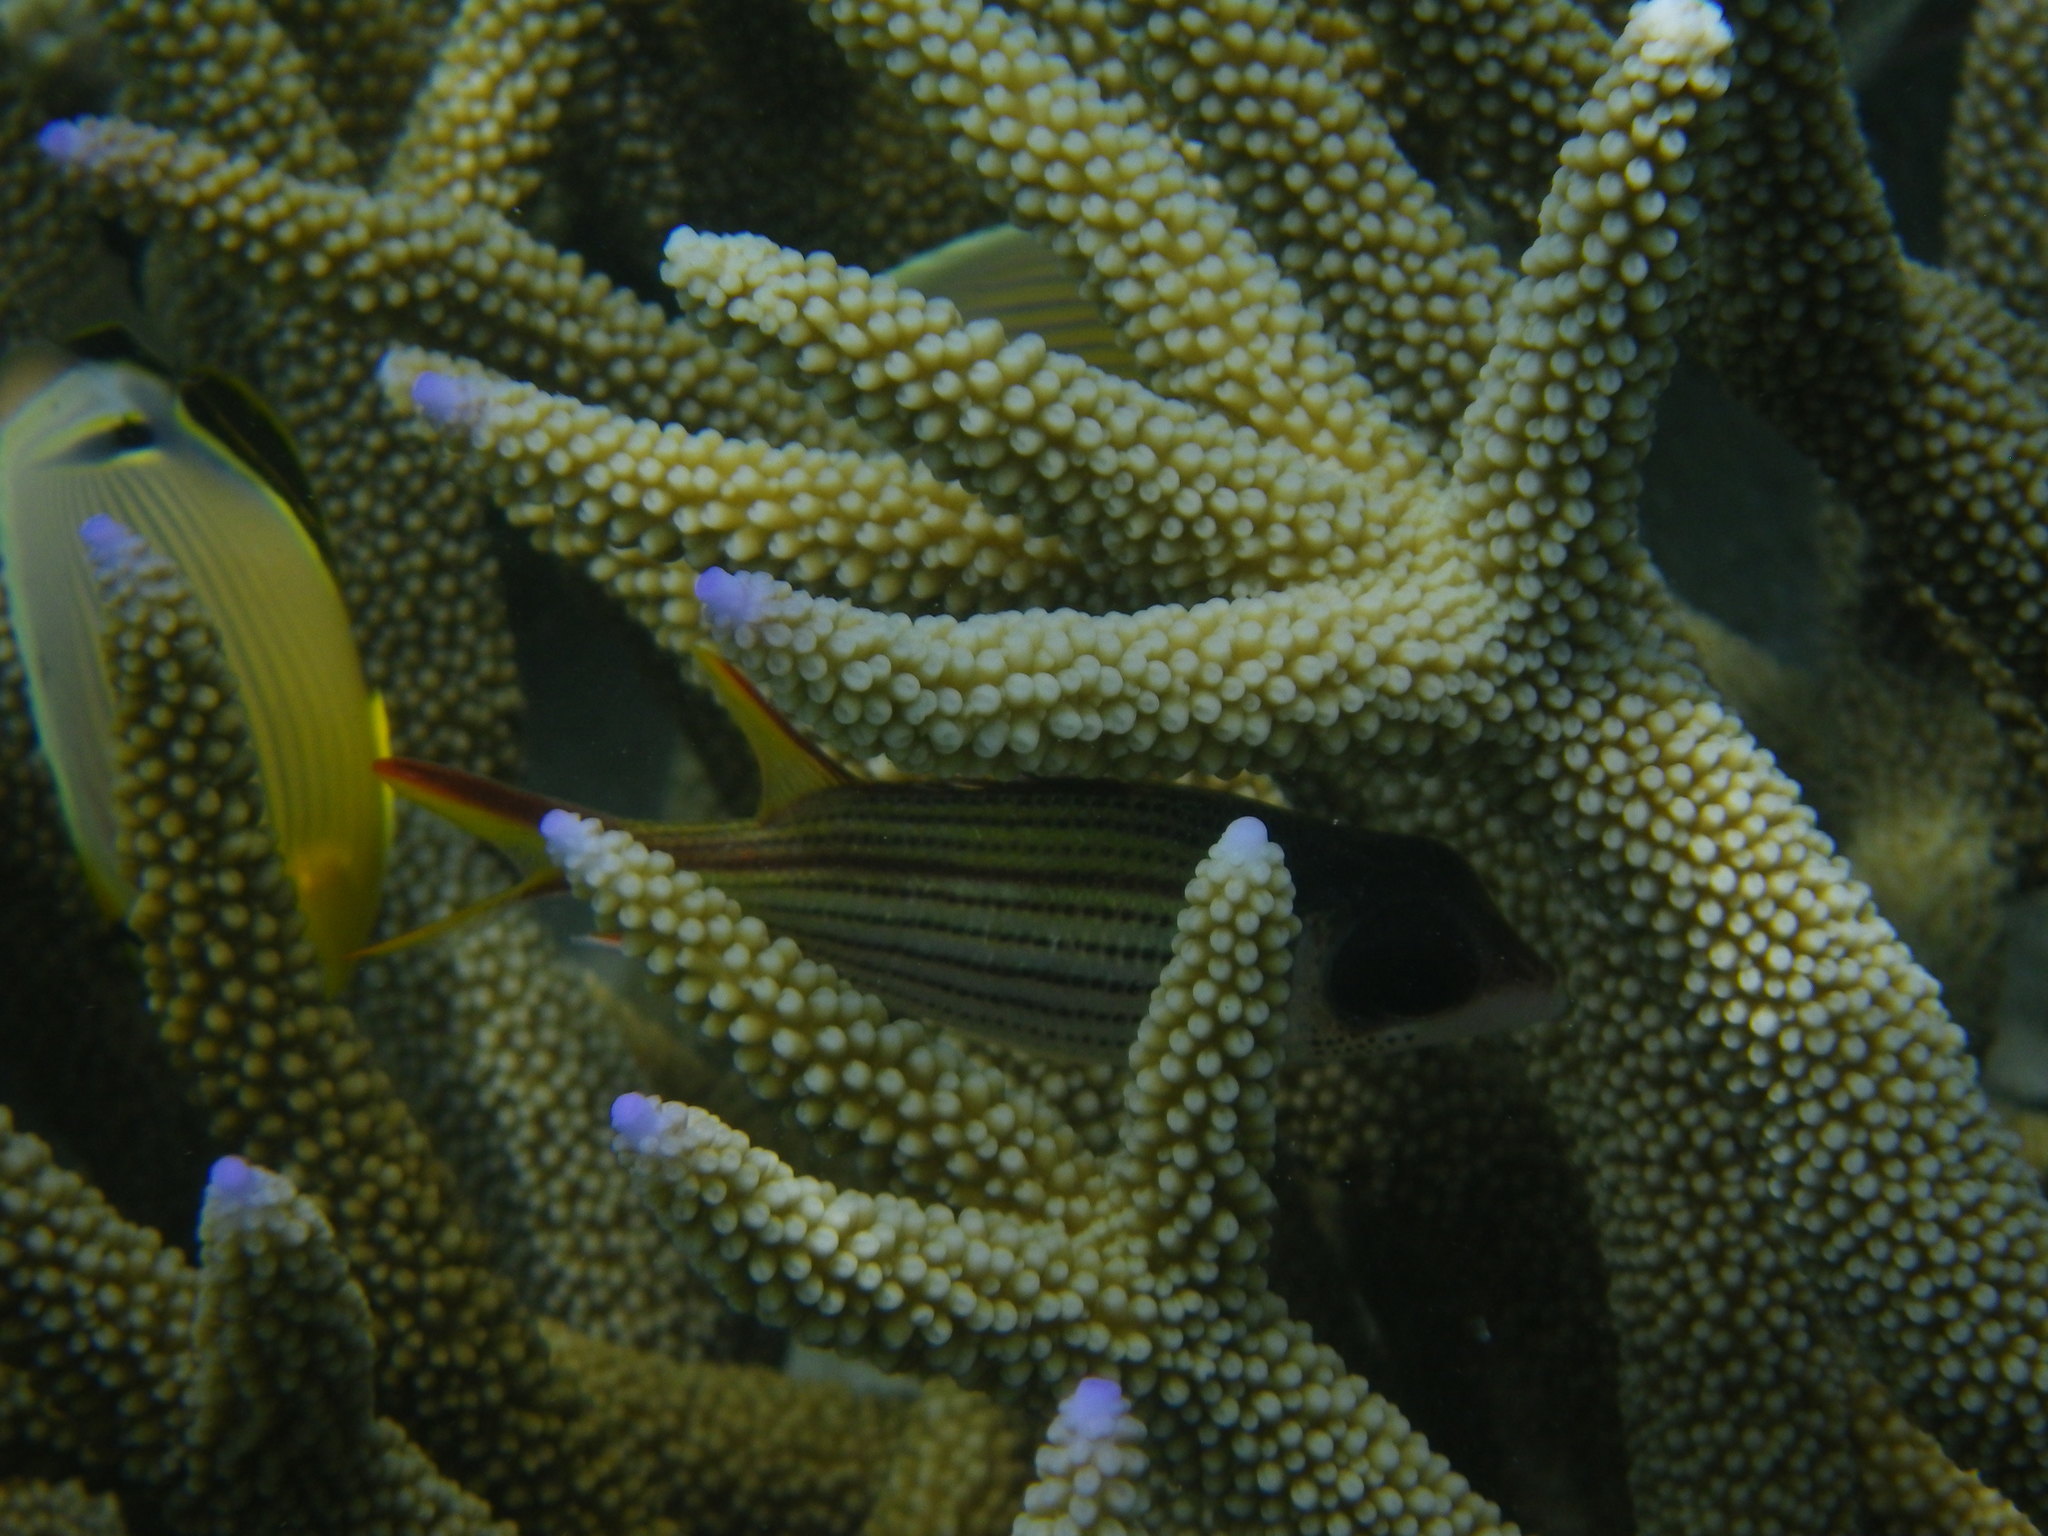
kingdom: Animalia
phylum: Chordata
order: Beryciformes
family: Holocentridae
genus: Neoniphon
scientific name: Neoniphon sammara
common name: Sammara squirrelfish
